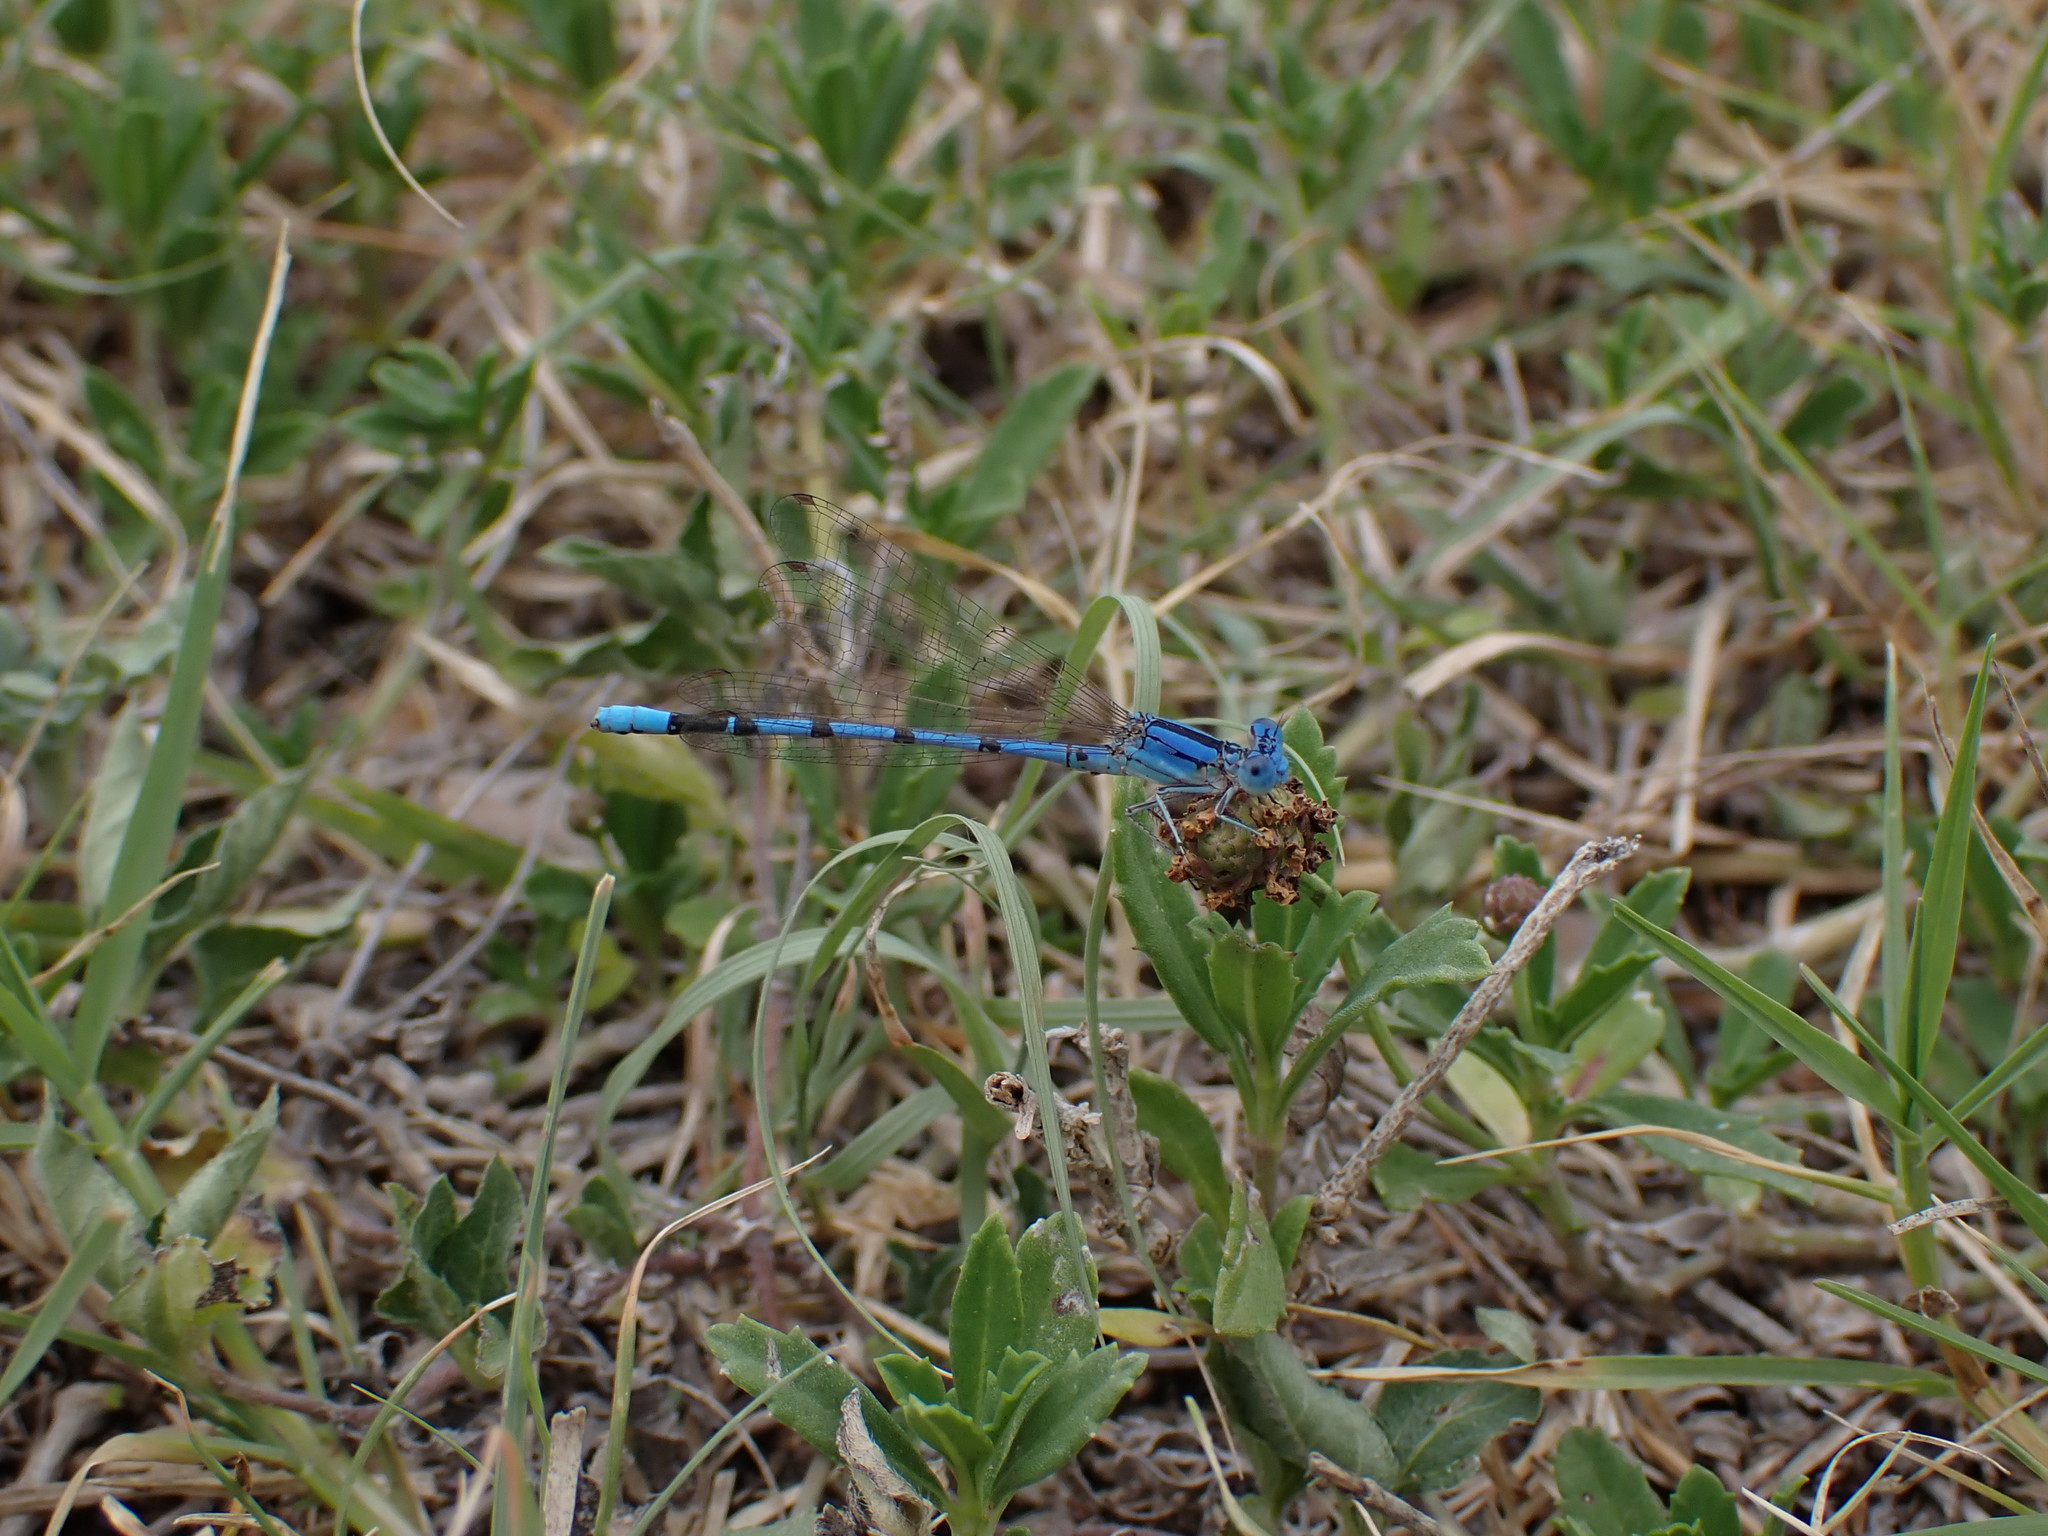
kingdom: Animalia
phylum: Arthropoda
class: Insecta
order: Odonata
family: Coenagrionidae
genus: Argia
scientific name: Argia nahuana
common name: Aztec dancer
